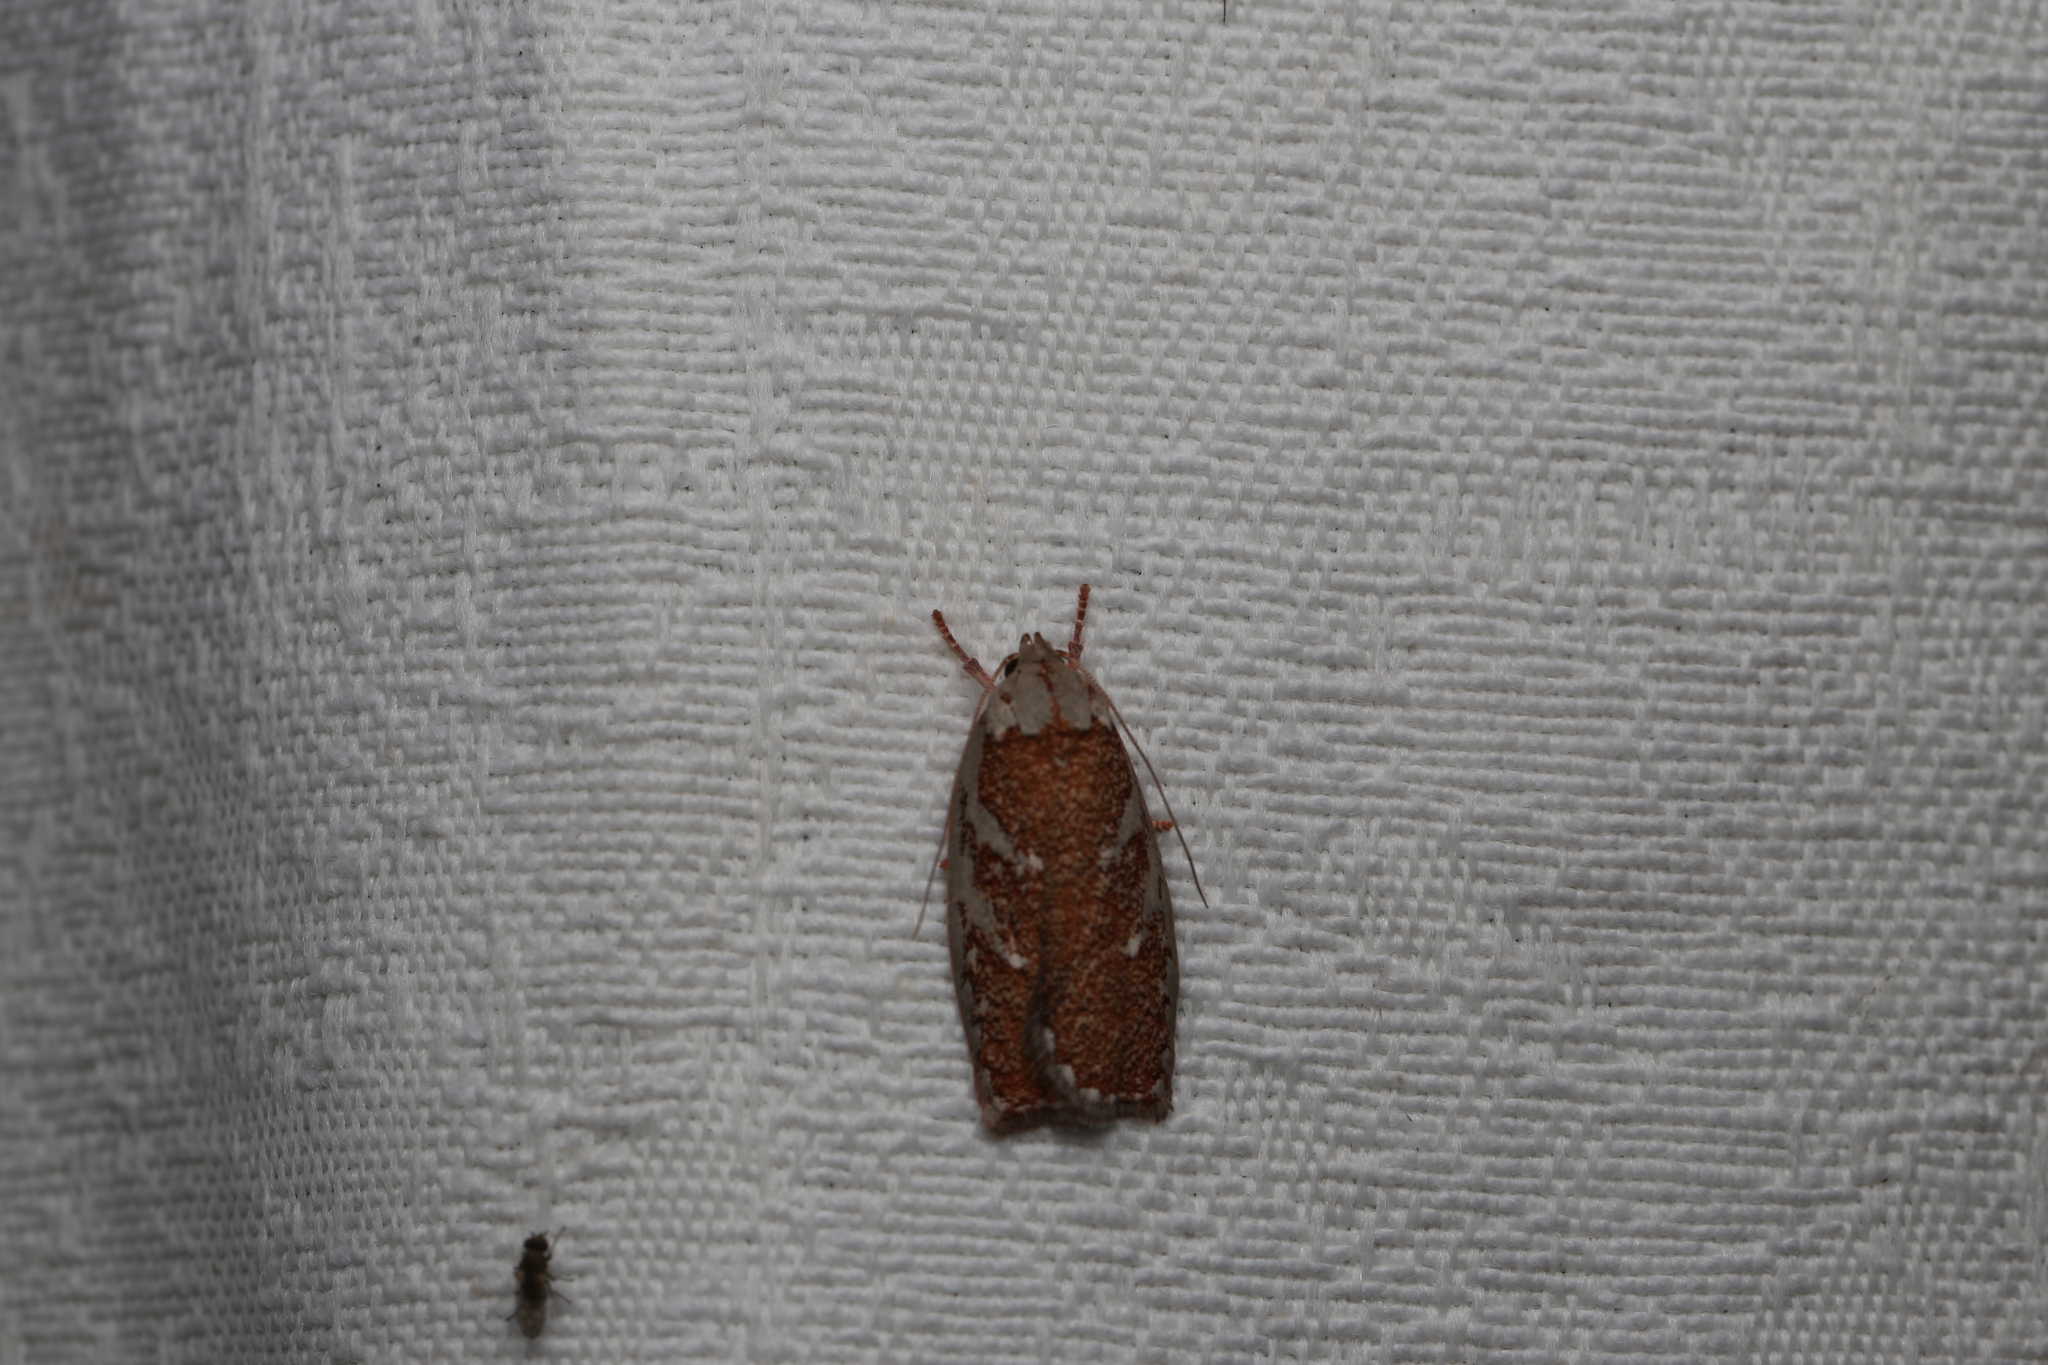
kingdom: Animalia
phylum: Arthropoda
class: Insecta
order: Lepidoptera
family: Oecophoridae
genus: Euchaetis
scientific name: Euchaetis rhizobola
